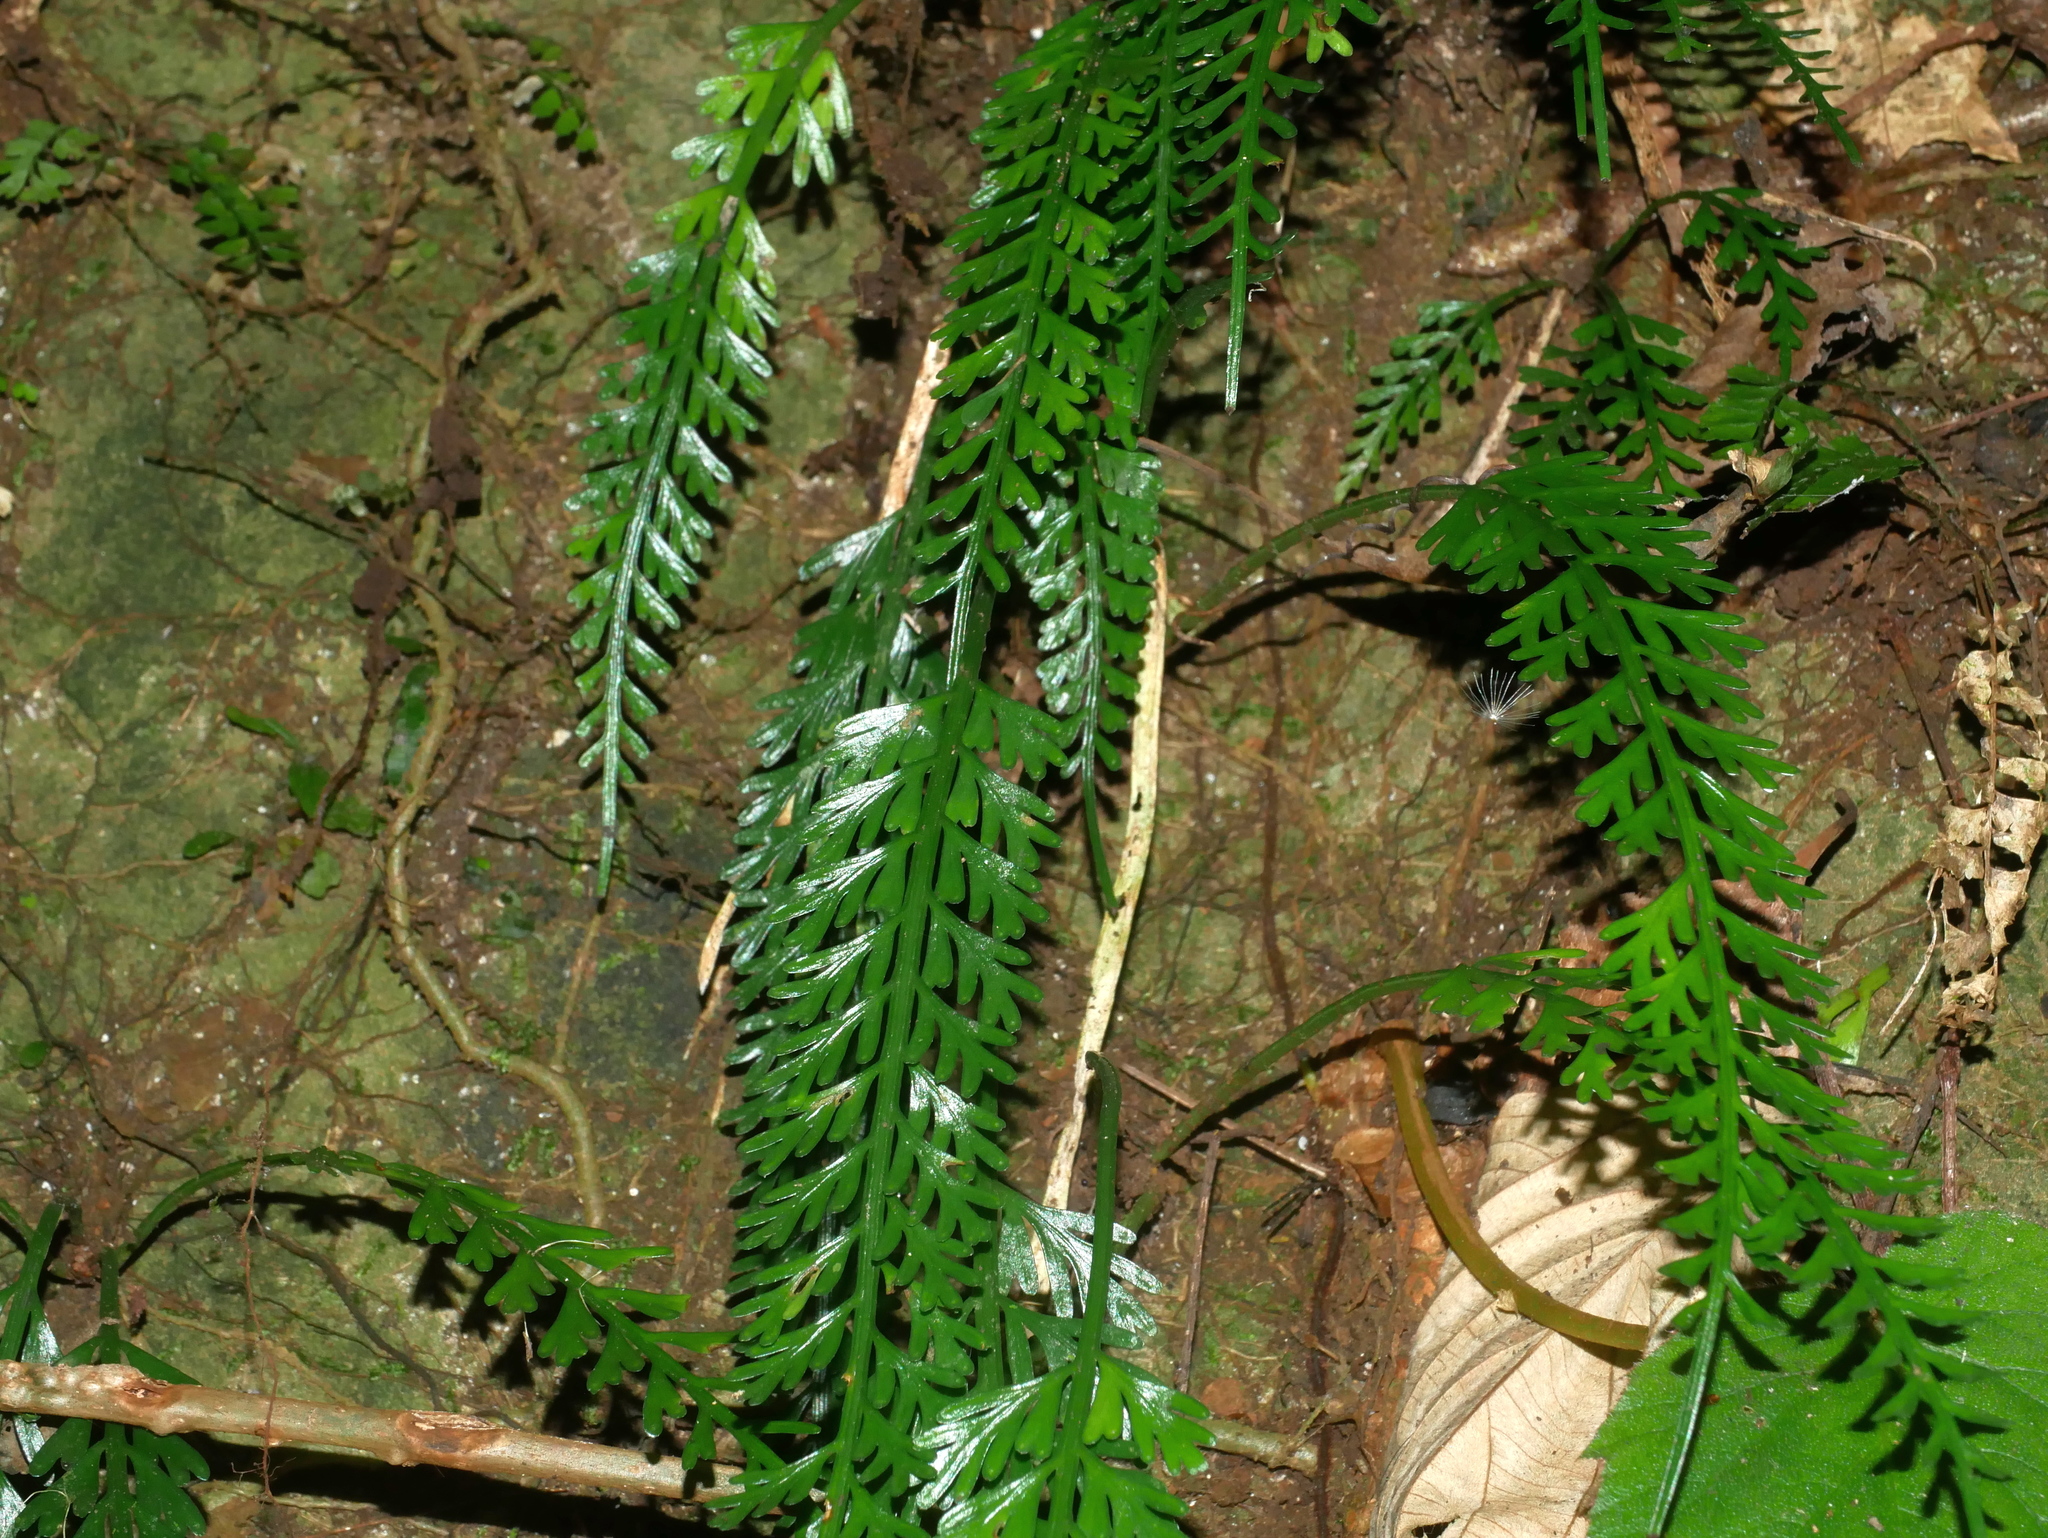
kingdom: Plantae
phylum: Tracheophyta
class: Polypodiopsida
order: Polypodiales
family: Aspleniaceae
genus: Asplenium
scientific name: Asplenium prolongatum
